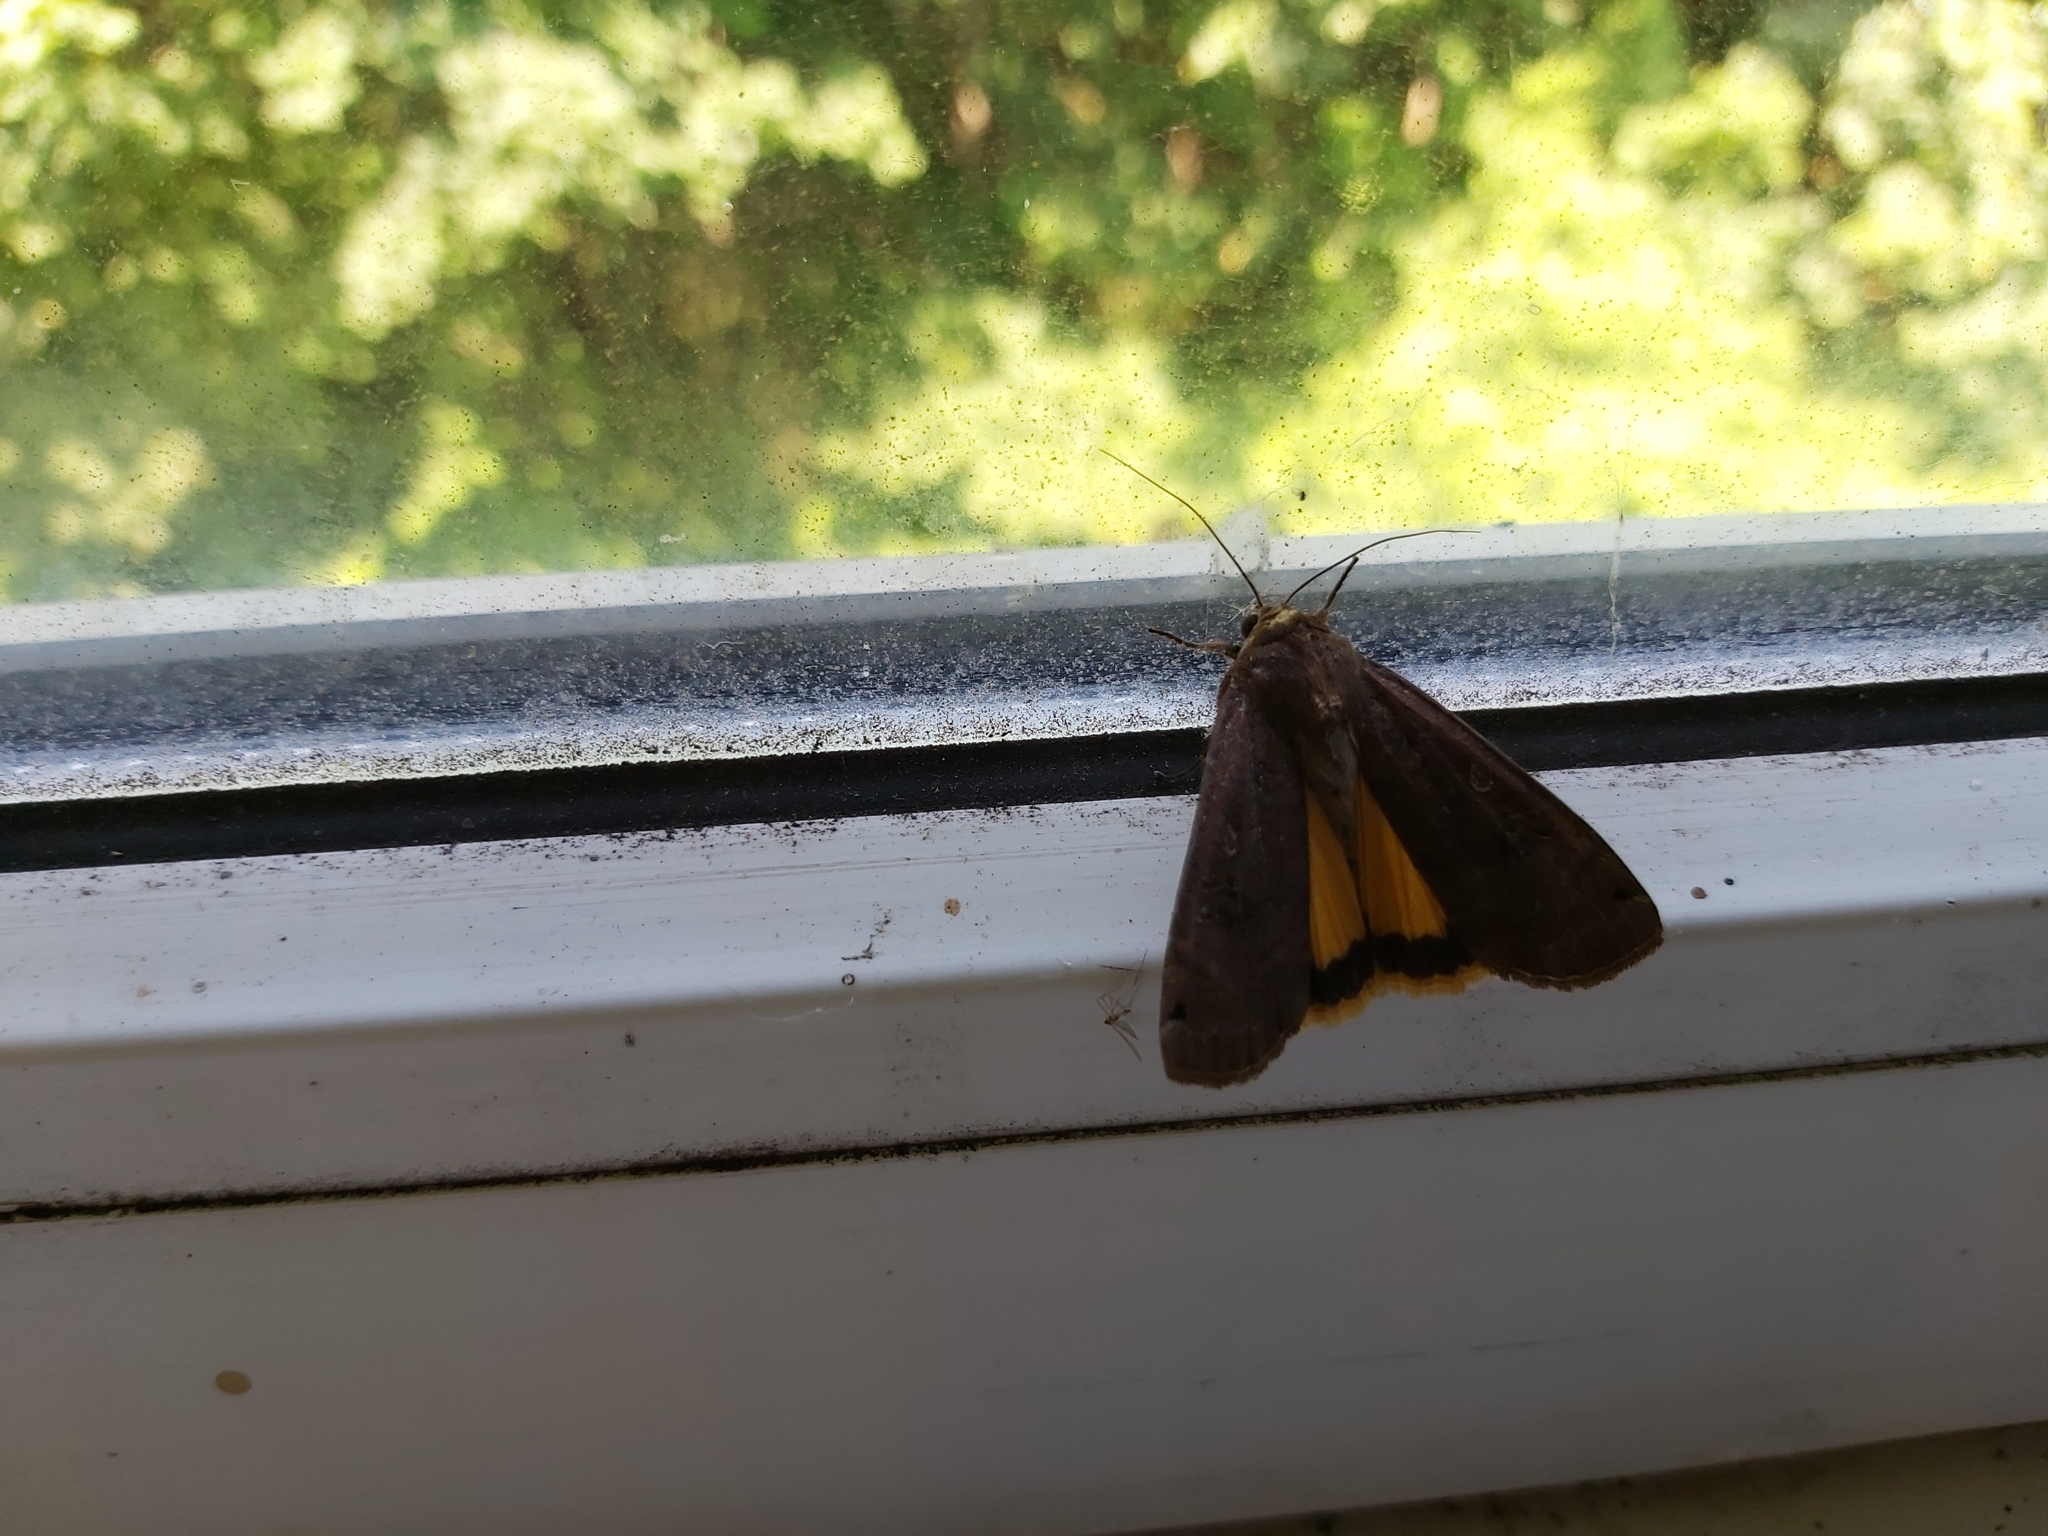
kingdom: Animalia
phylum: Arthropoda
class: Insecta
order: Lepidoptera
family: Noctuidae
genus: Noctua
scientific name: Noctua pronuba
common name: Large yellow underwing
